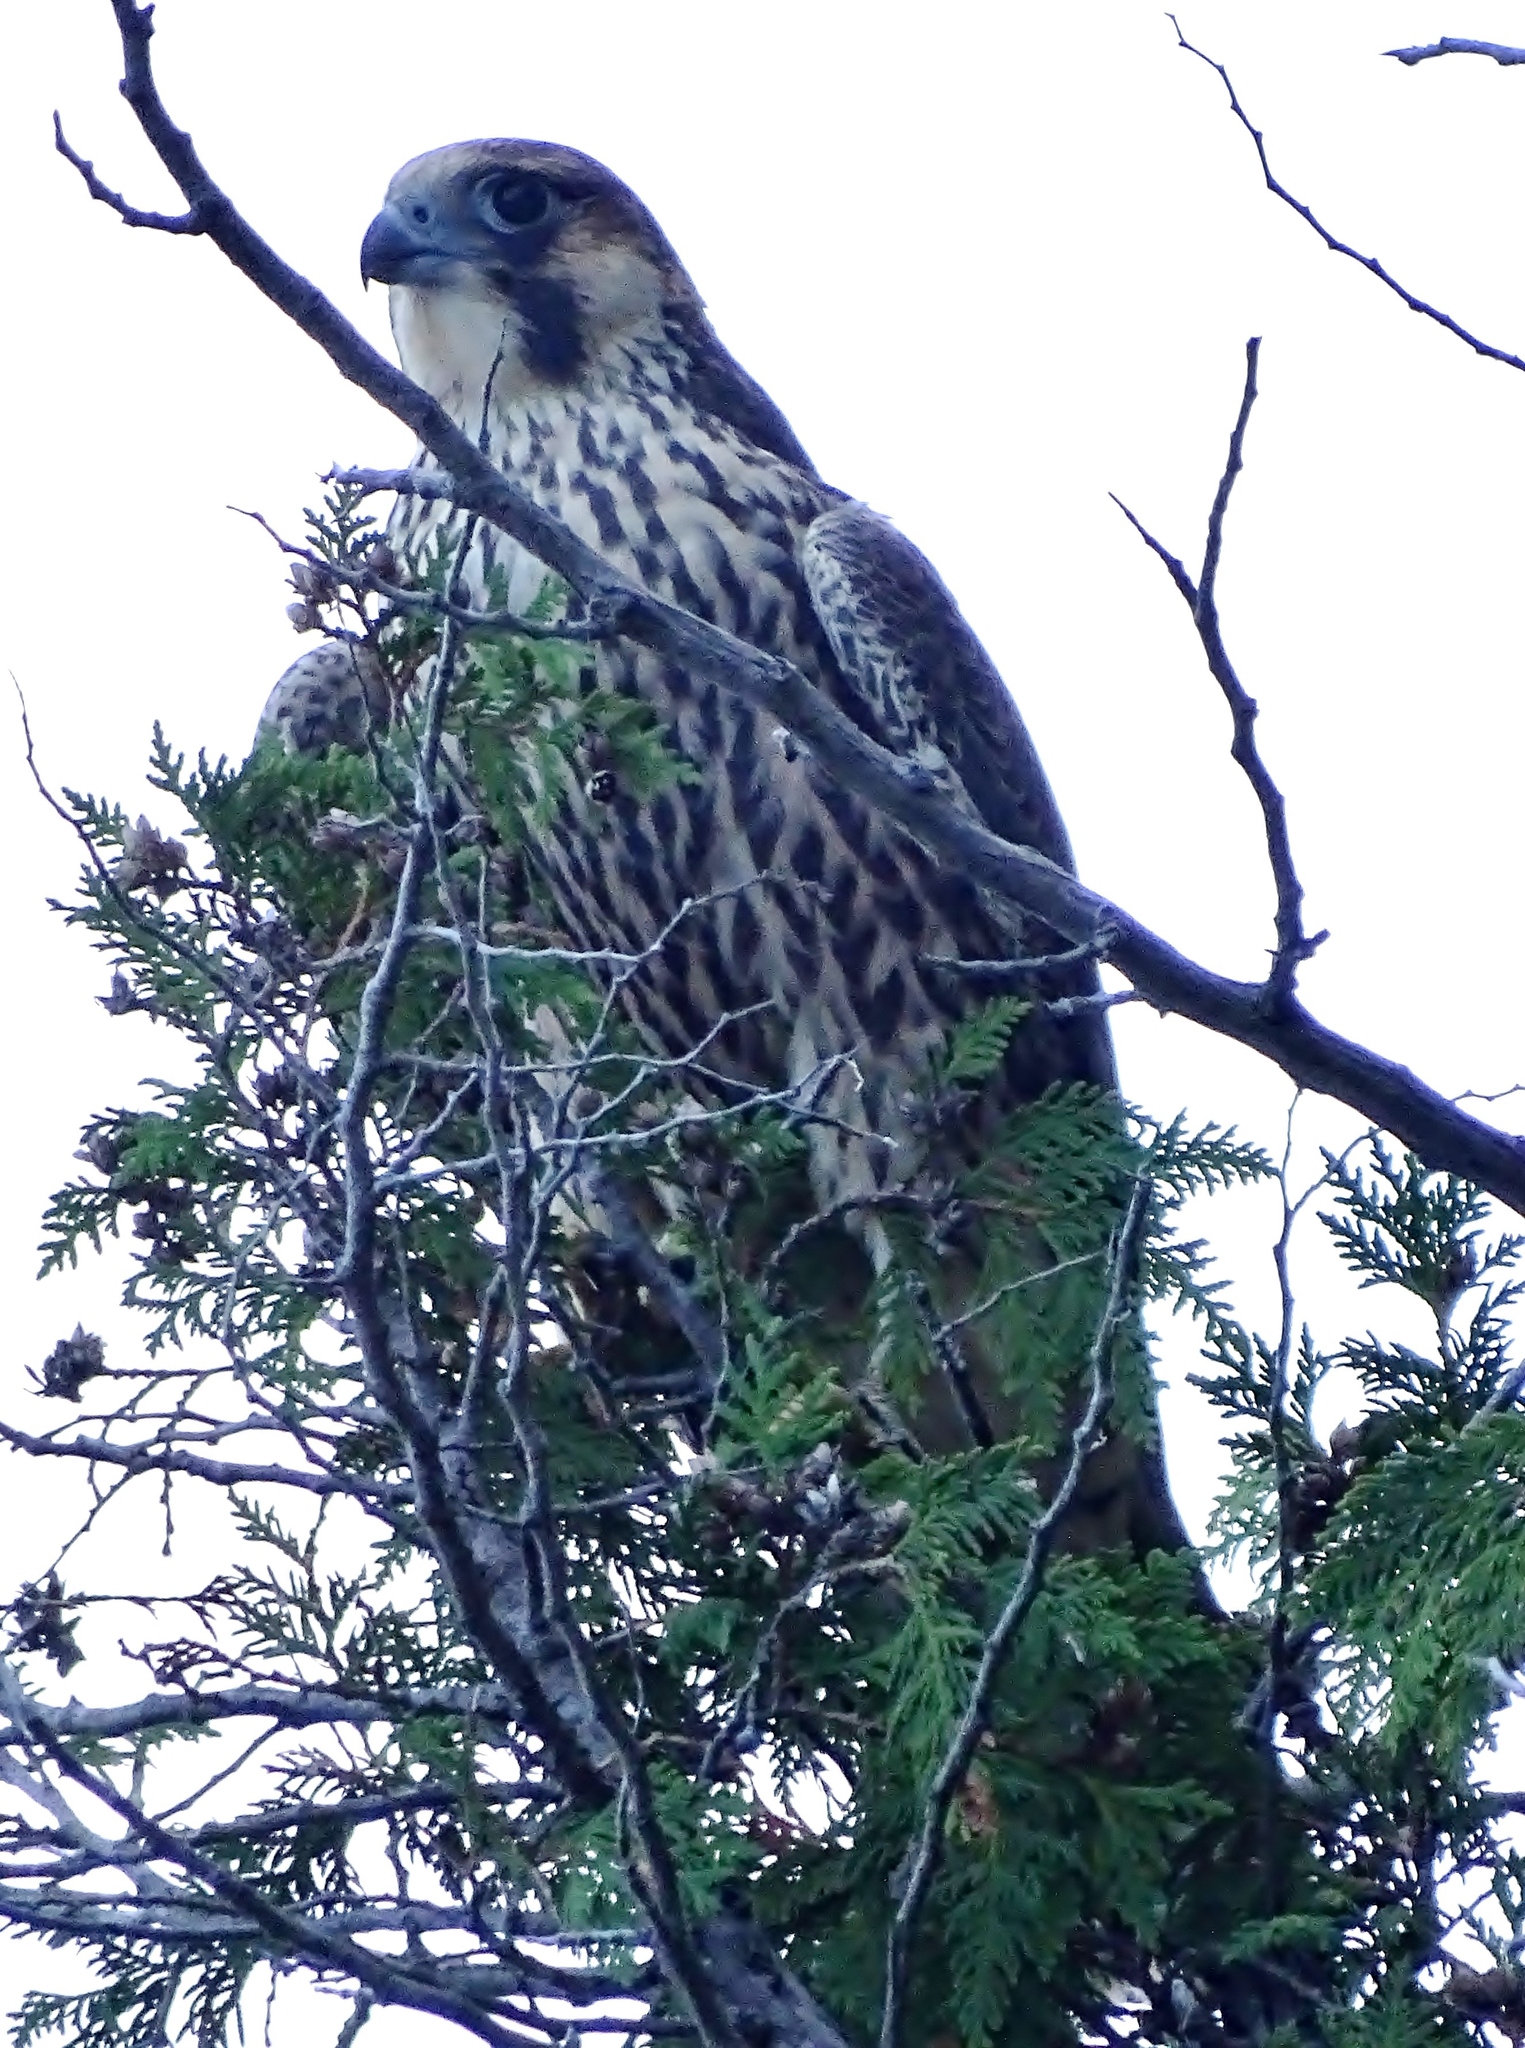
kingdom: Animalia
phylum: Chordata
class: Aves
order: Falconiformes
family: Falconidae
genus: Falco
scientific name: Falco peregrinus
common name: Peregrine falcon
